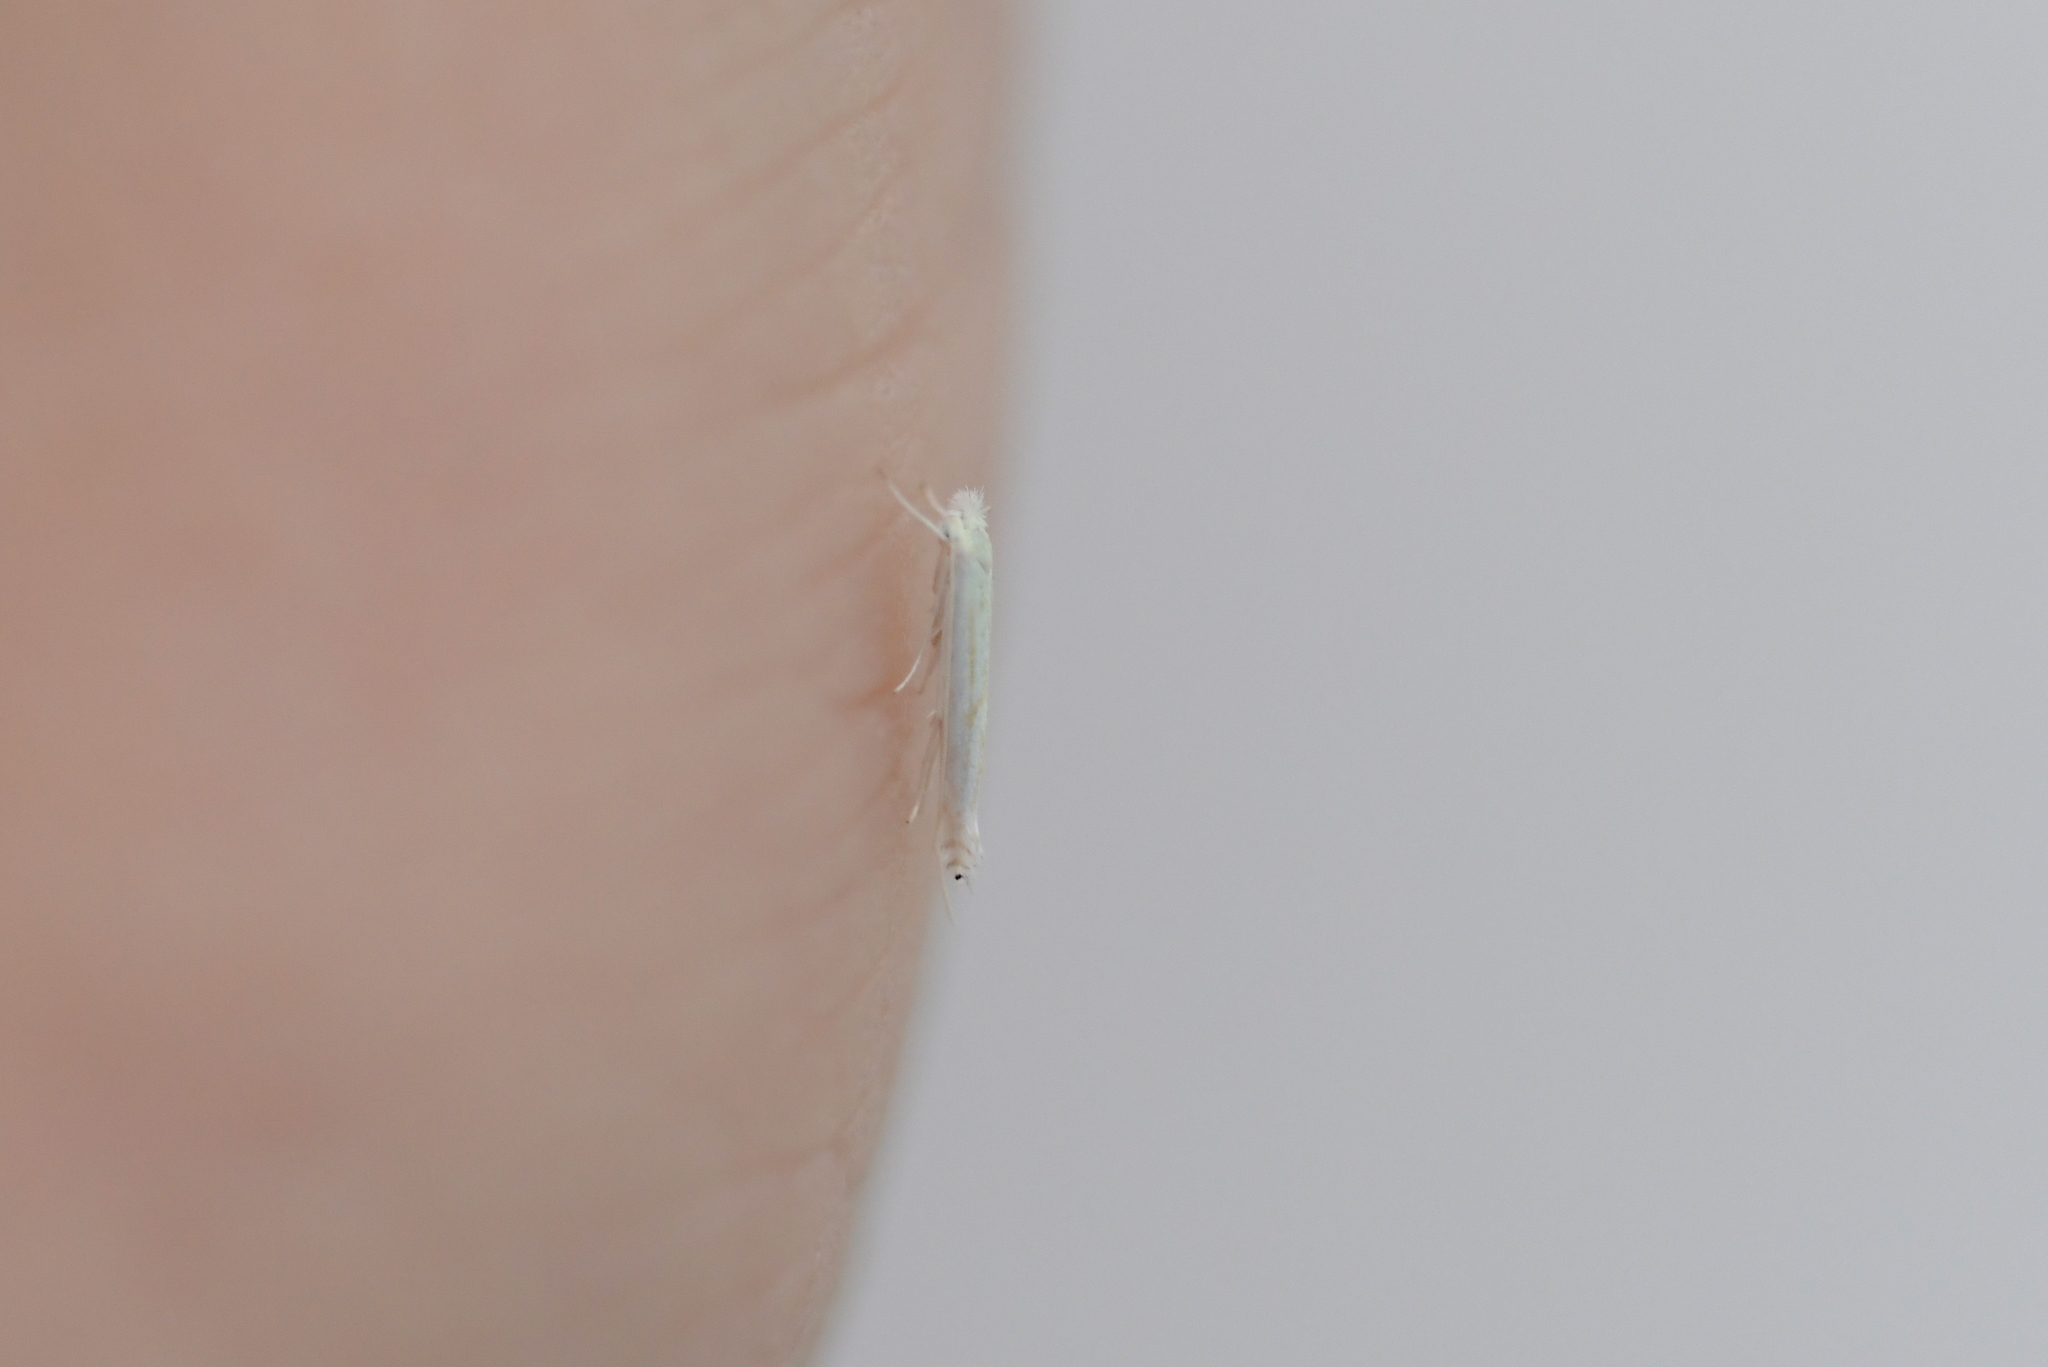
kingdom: Animalia
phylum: Arthropoda
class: Insecta
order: Lepidoptera
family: Lyonetiidae
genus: Stegommata
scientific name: Stegommata sulfuratella
